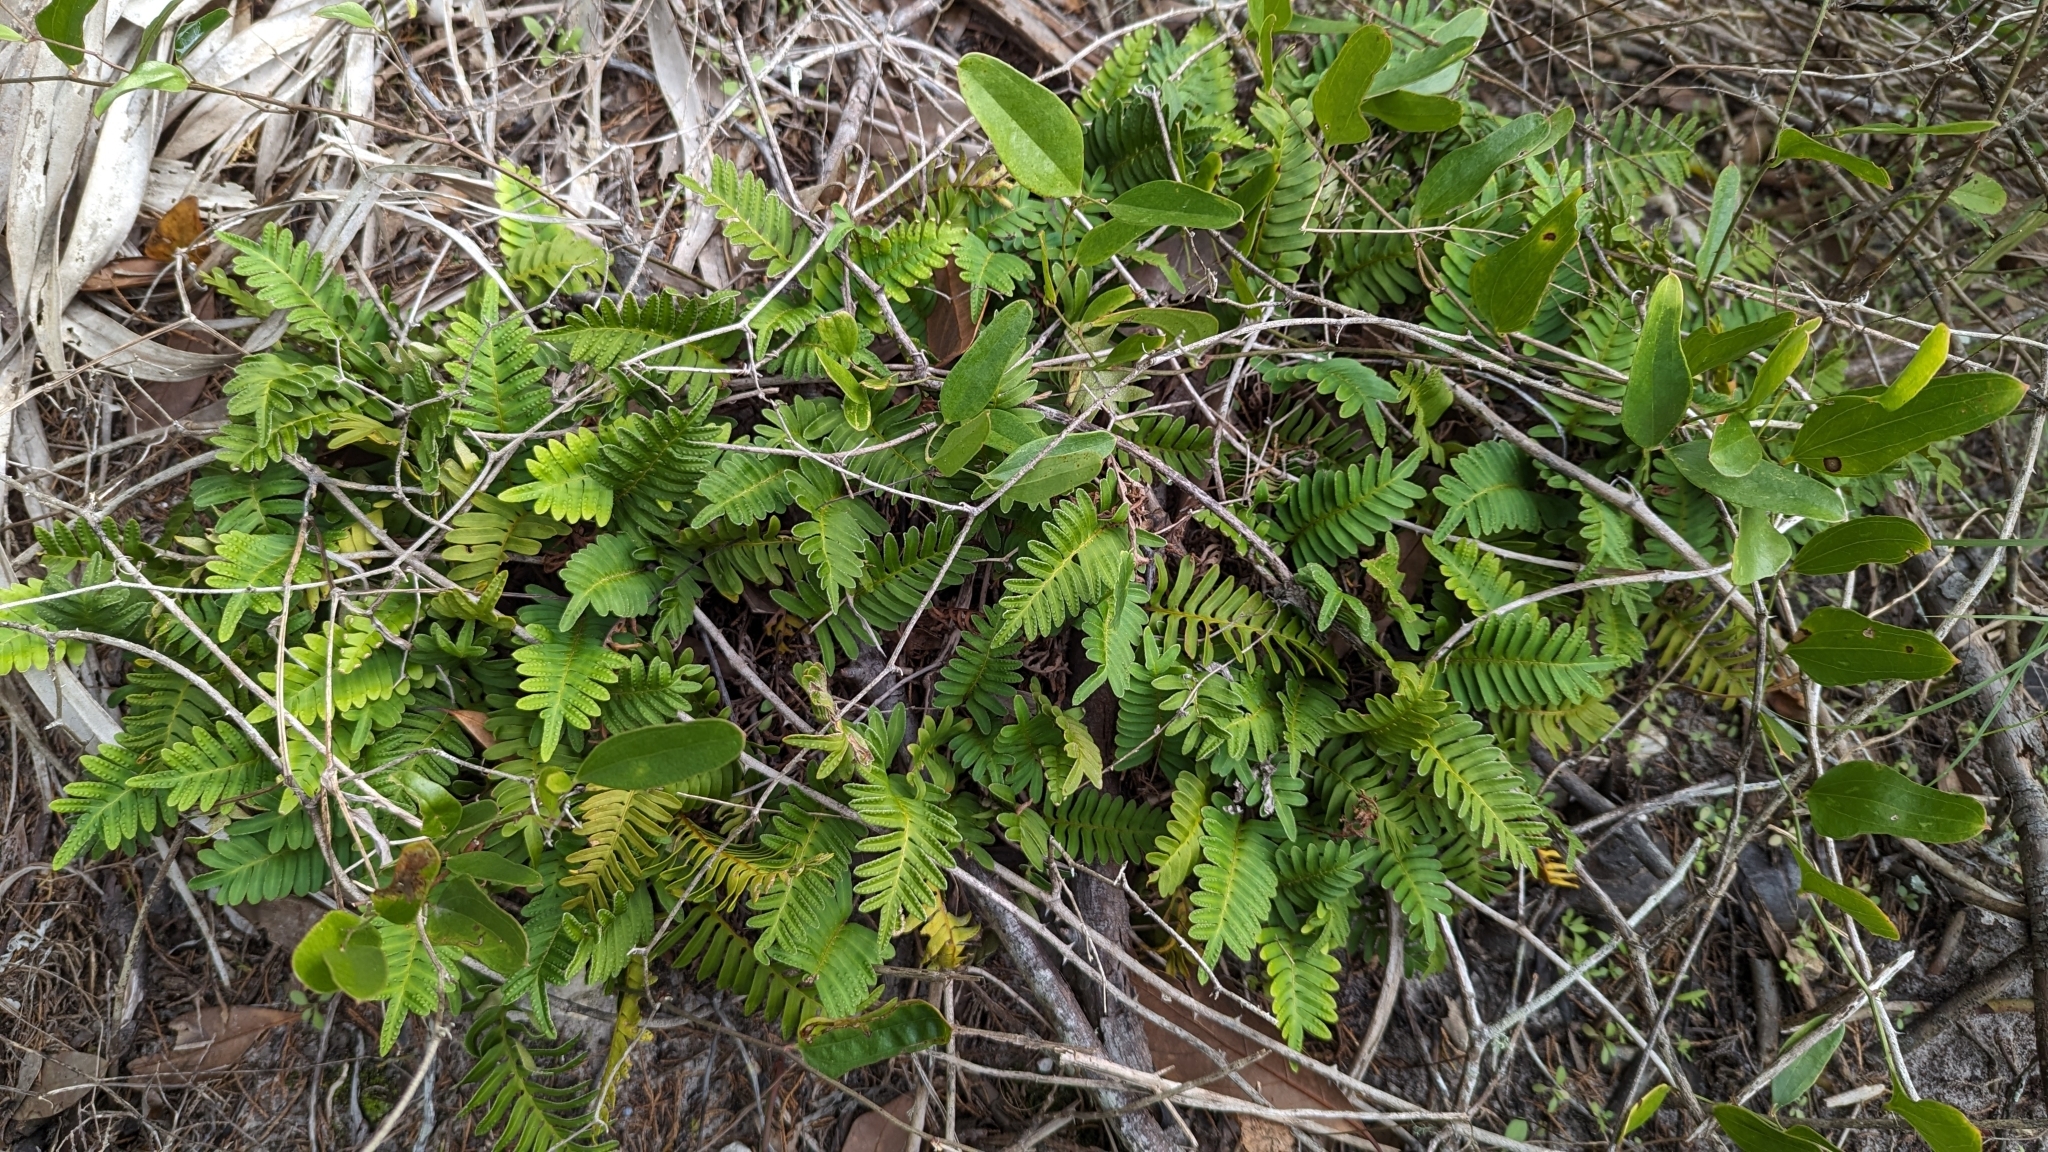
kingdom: Plantae
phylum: Tracheophyta
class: Polypodiopsida
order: Polypodiales
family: Polypodiaceae
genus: Pleopeltis
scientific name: Pleopeltis michauxiana
